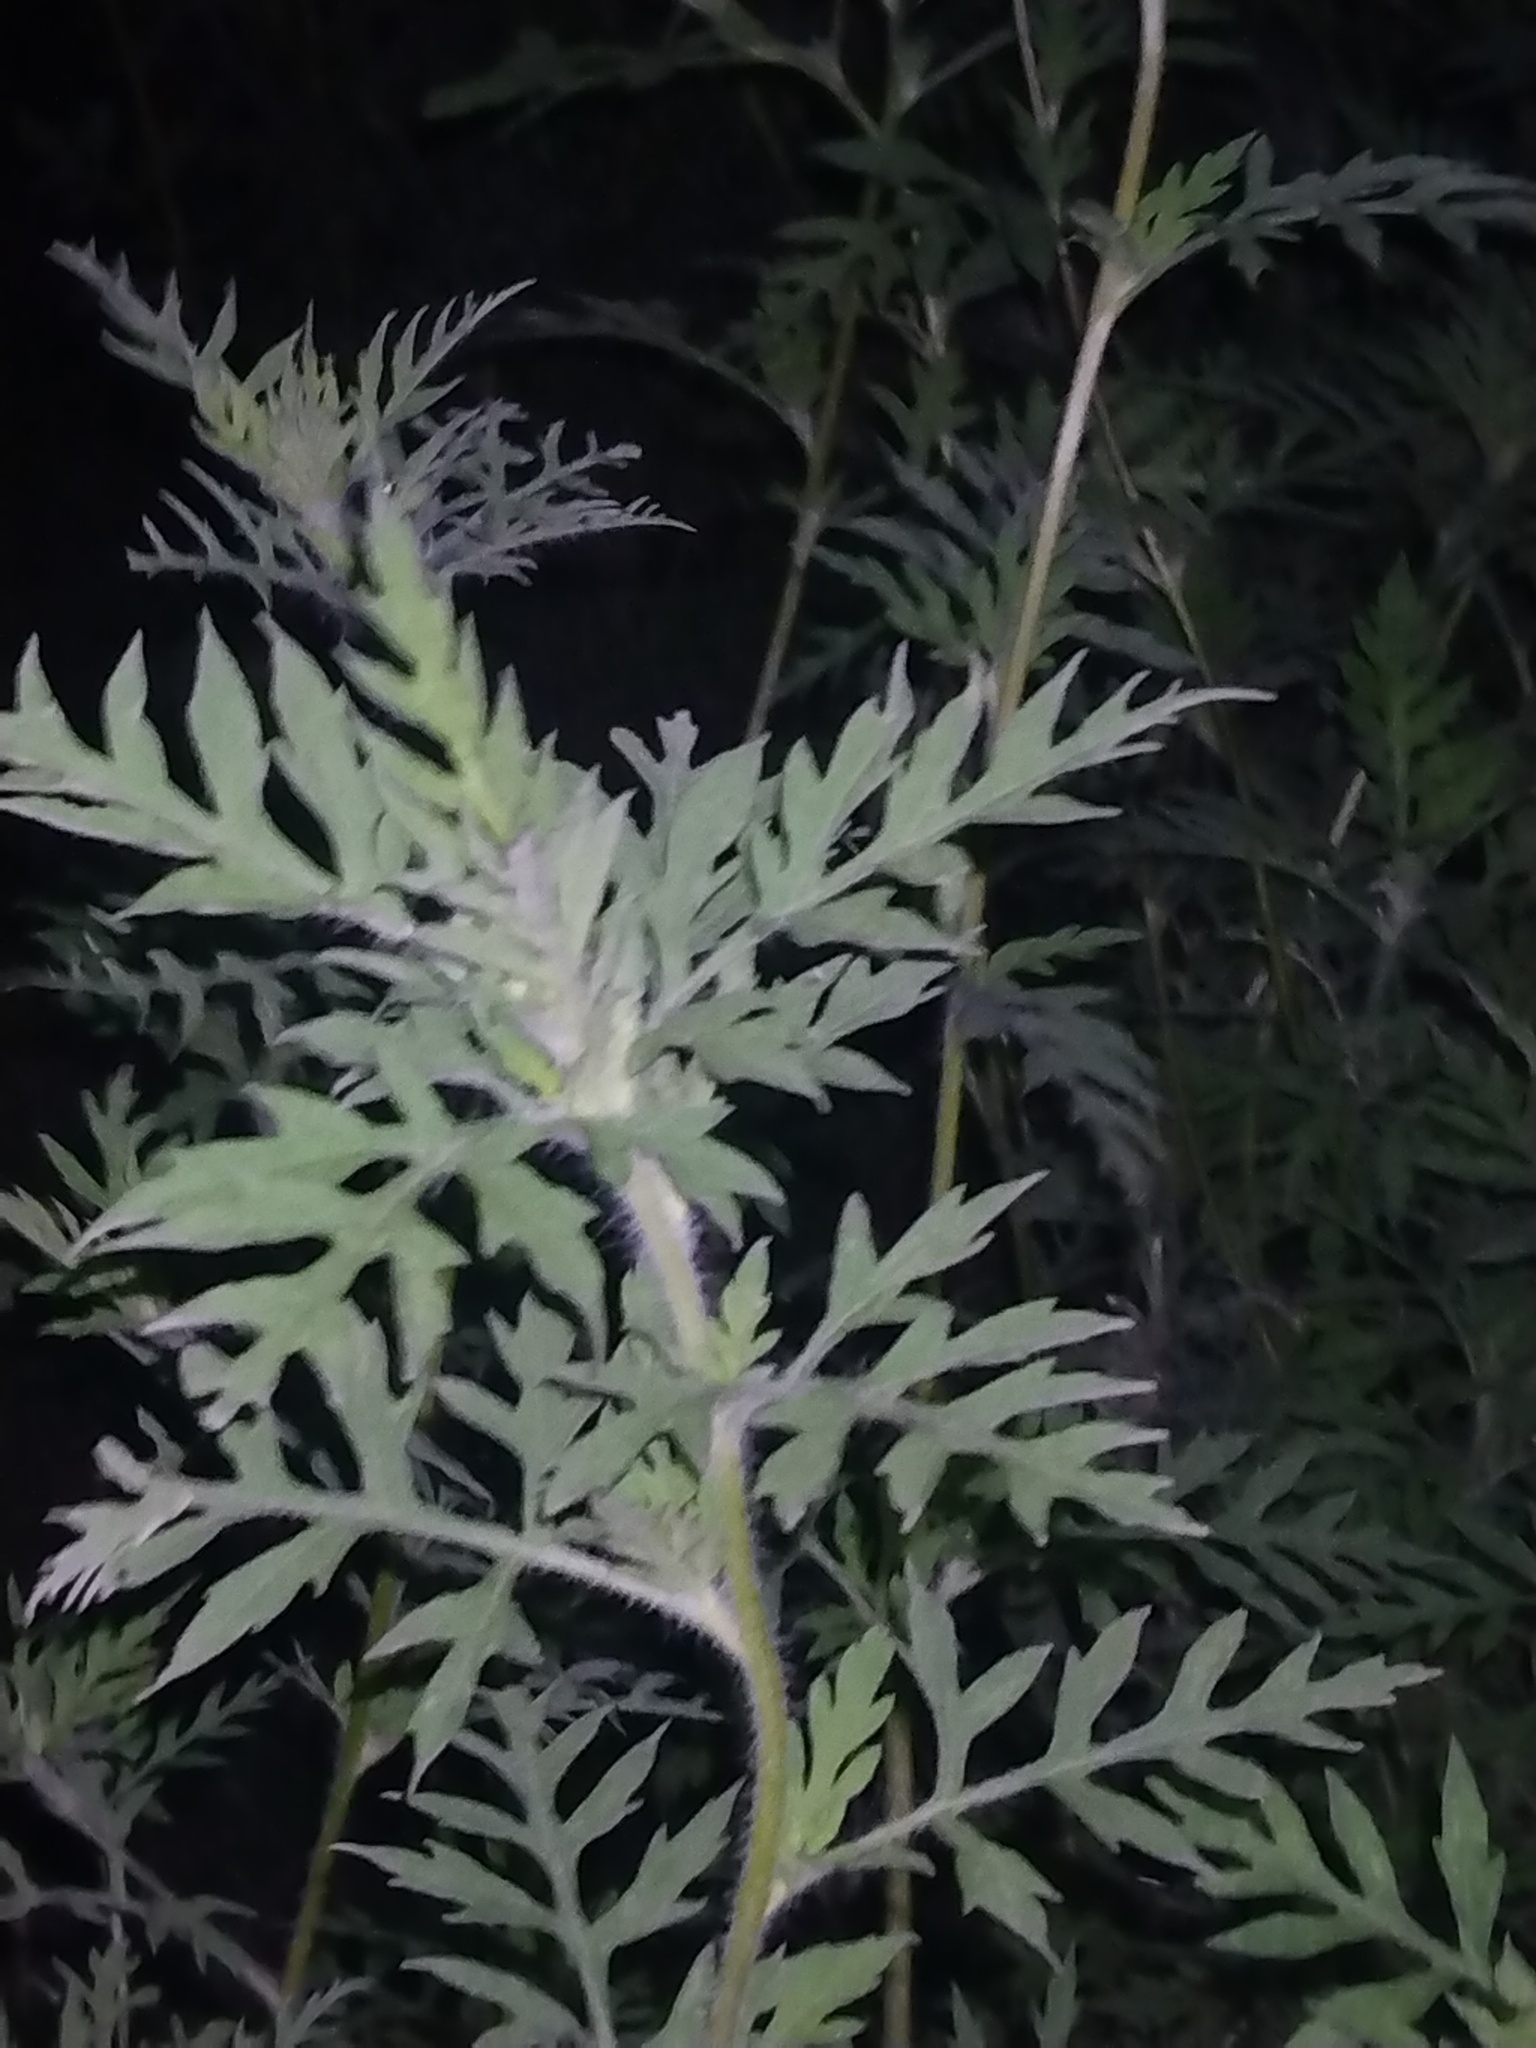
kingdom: Plantae
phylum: Tracheophyta
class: Magnoliopsida
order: Asterales
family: Asteraceae
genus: Ambrosia
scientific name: Ambrosia artemisiifolia
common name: Annual ragweed
